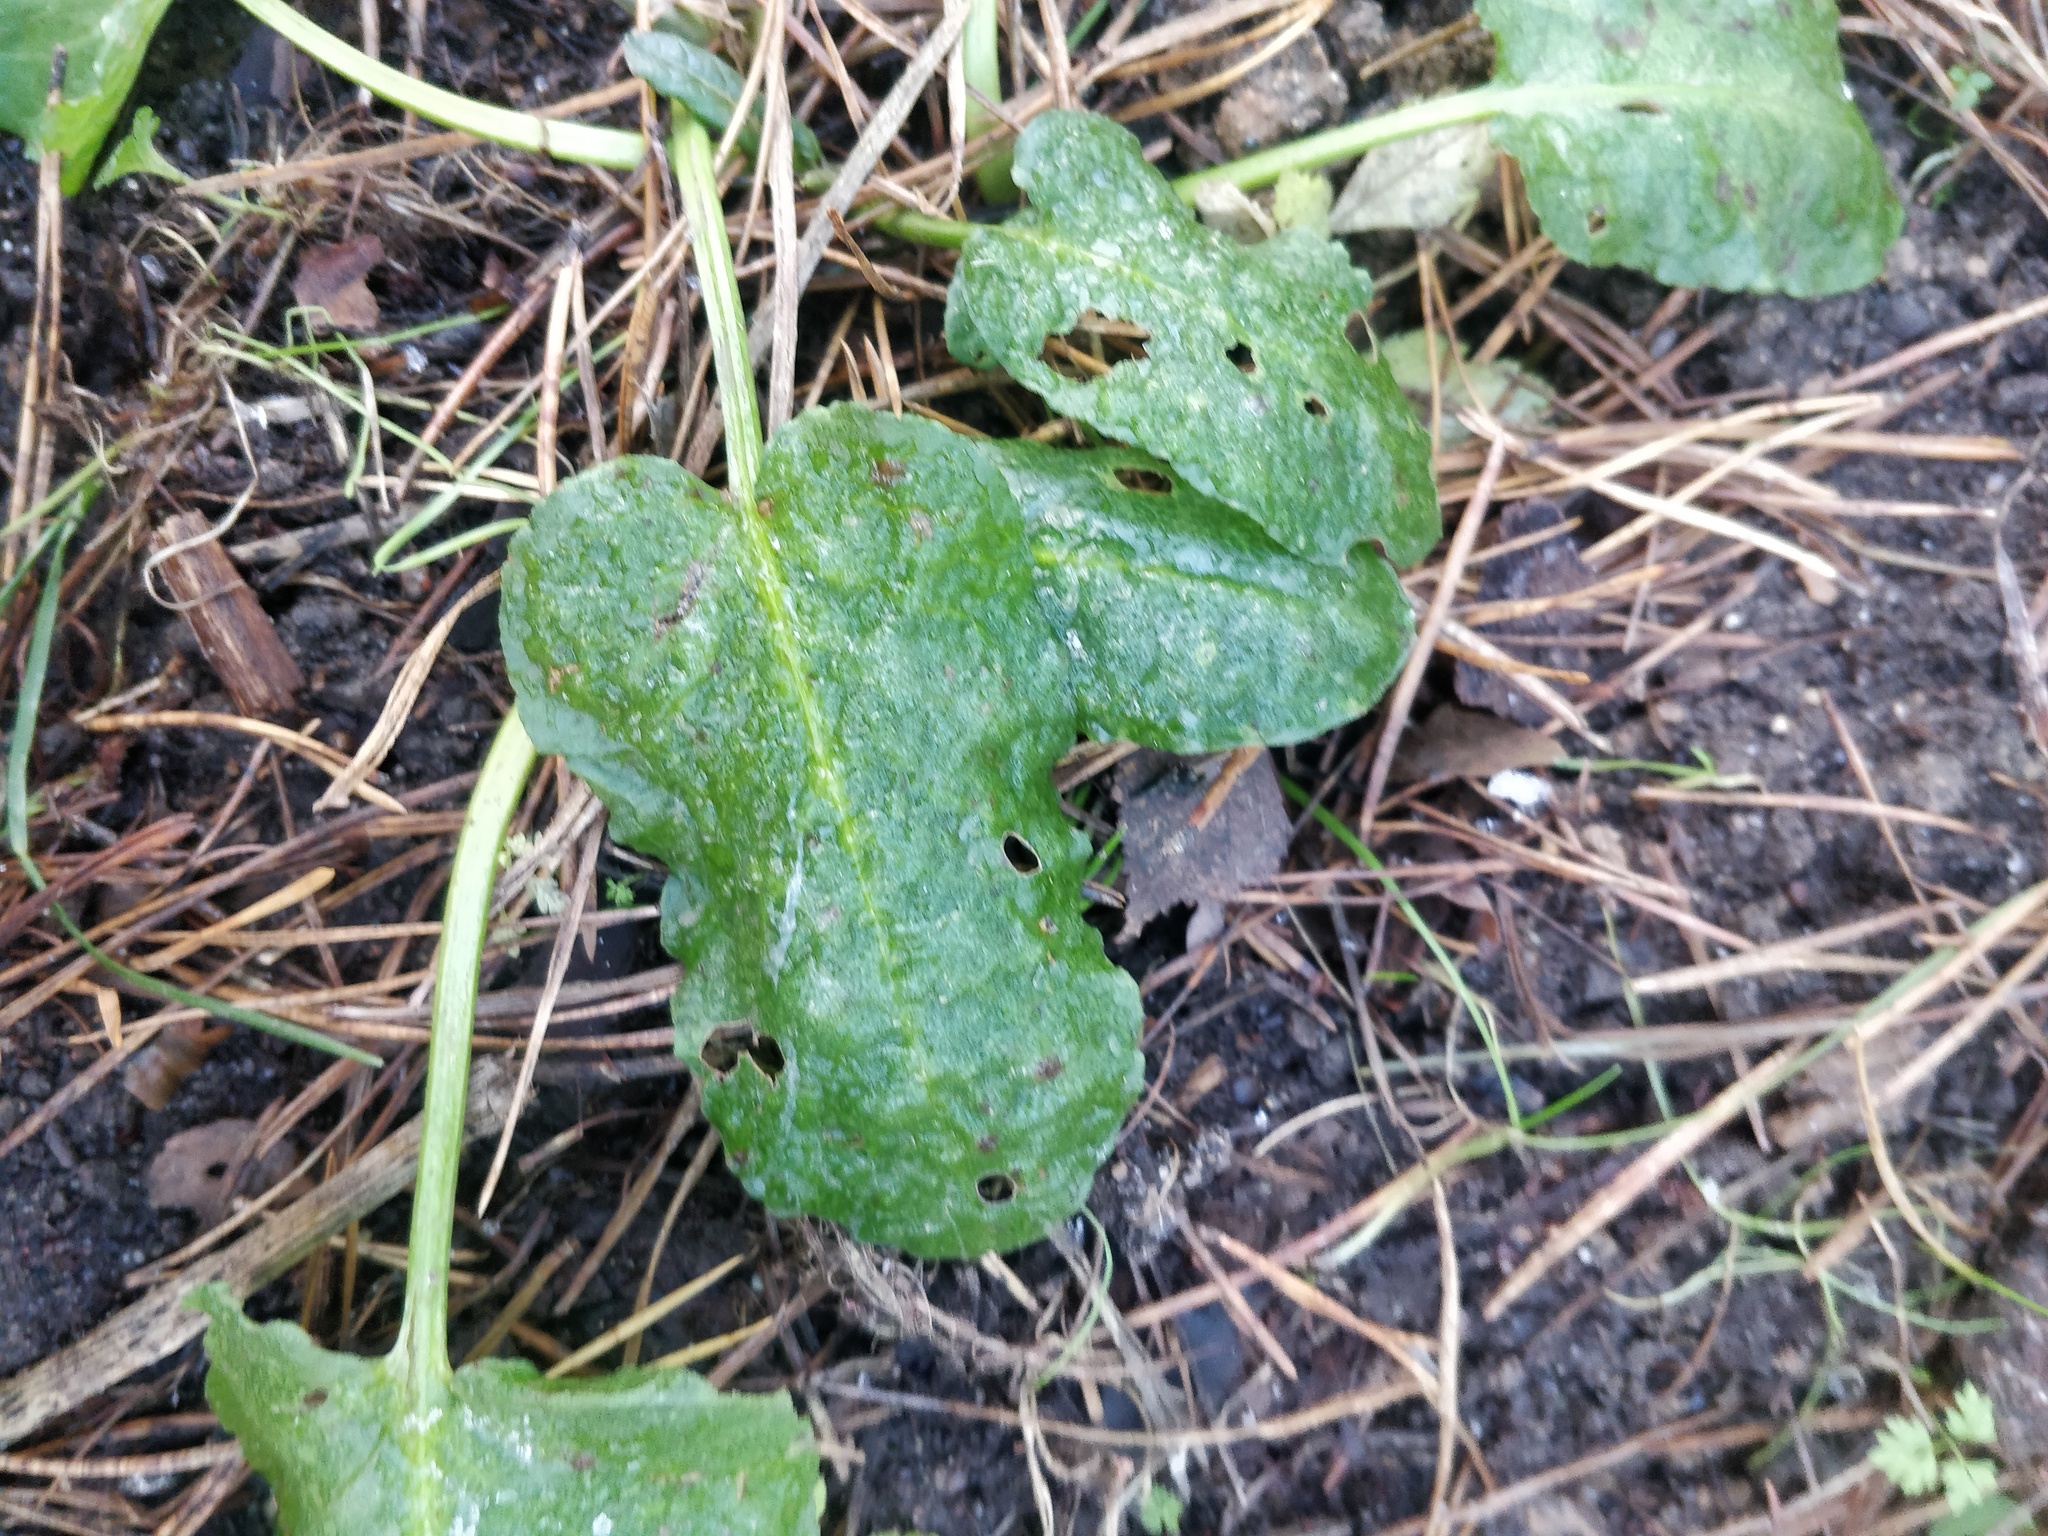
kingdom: Plantae
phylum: Tracheophyta
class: Magnoliopsida
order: Caryophyllales
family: Polygonaceae
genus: Rumex
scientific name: Rumex obtusifolius
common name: Bitter dock
